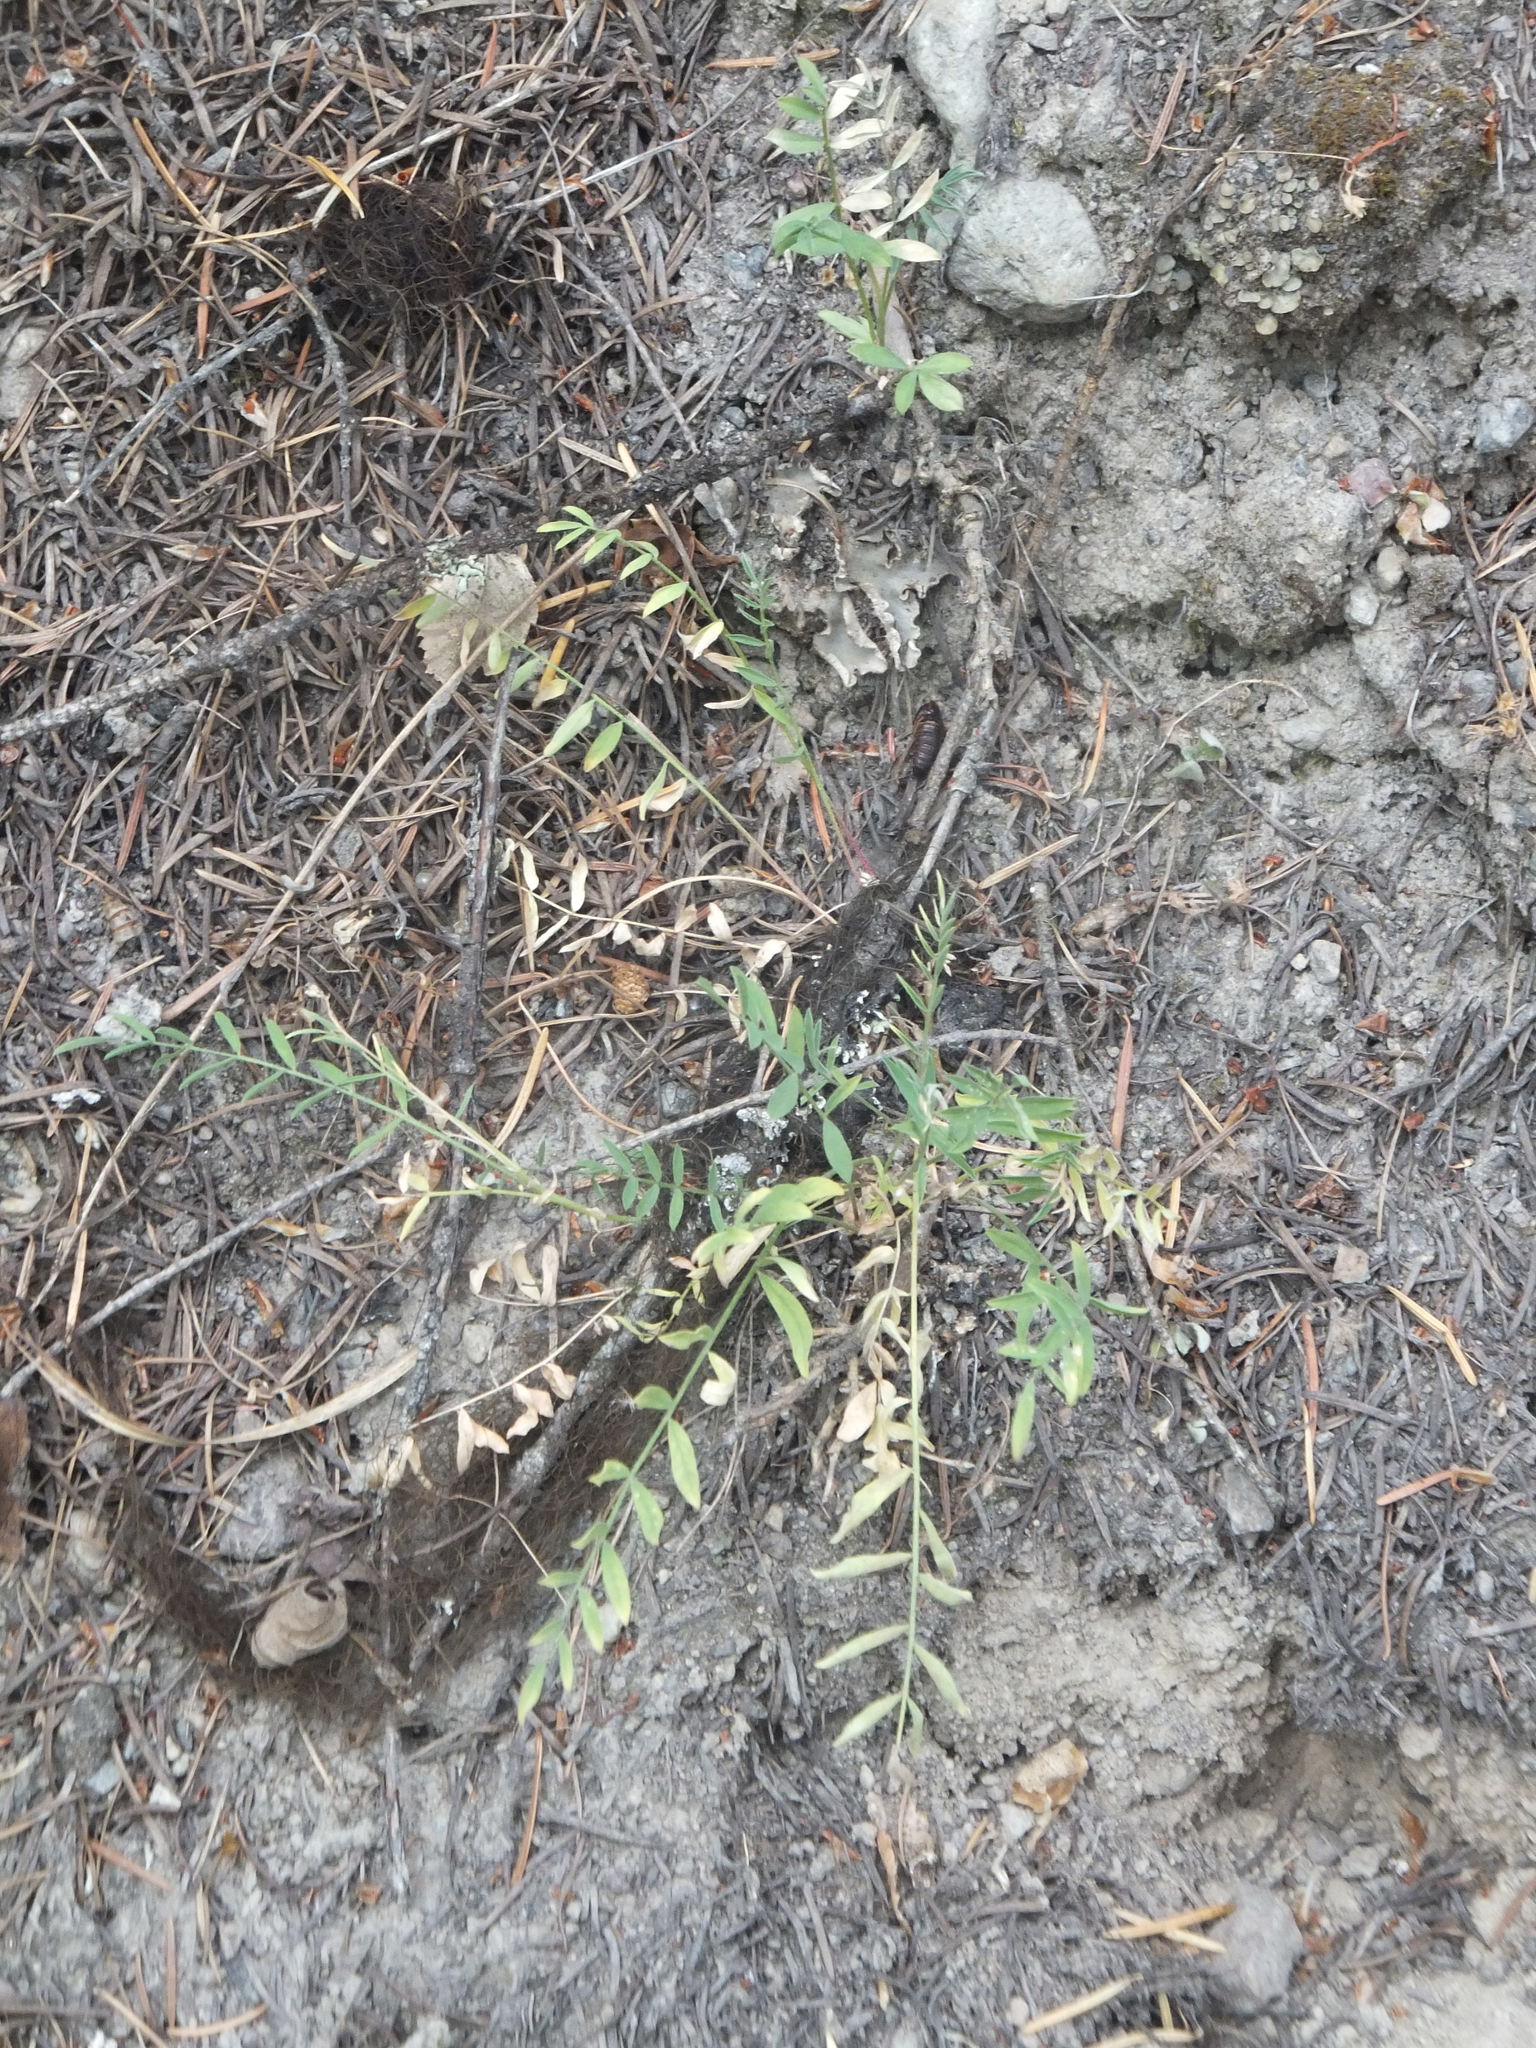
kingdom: Plantae
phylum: Tracheophyta
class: Magnoliopsida
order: Fabales
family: Fabaceae
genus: Astragalus
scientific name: Astragalus miser
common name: Timber milkvetch
